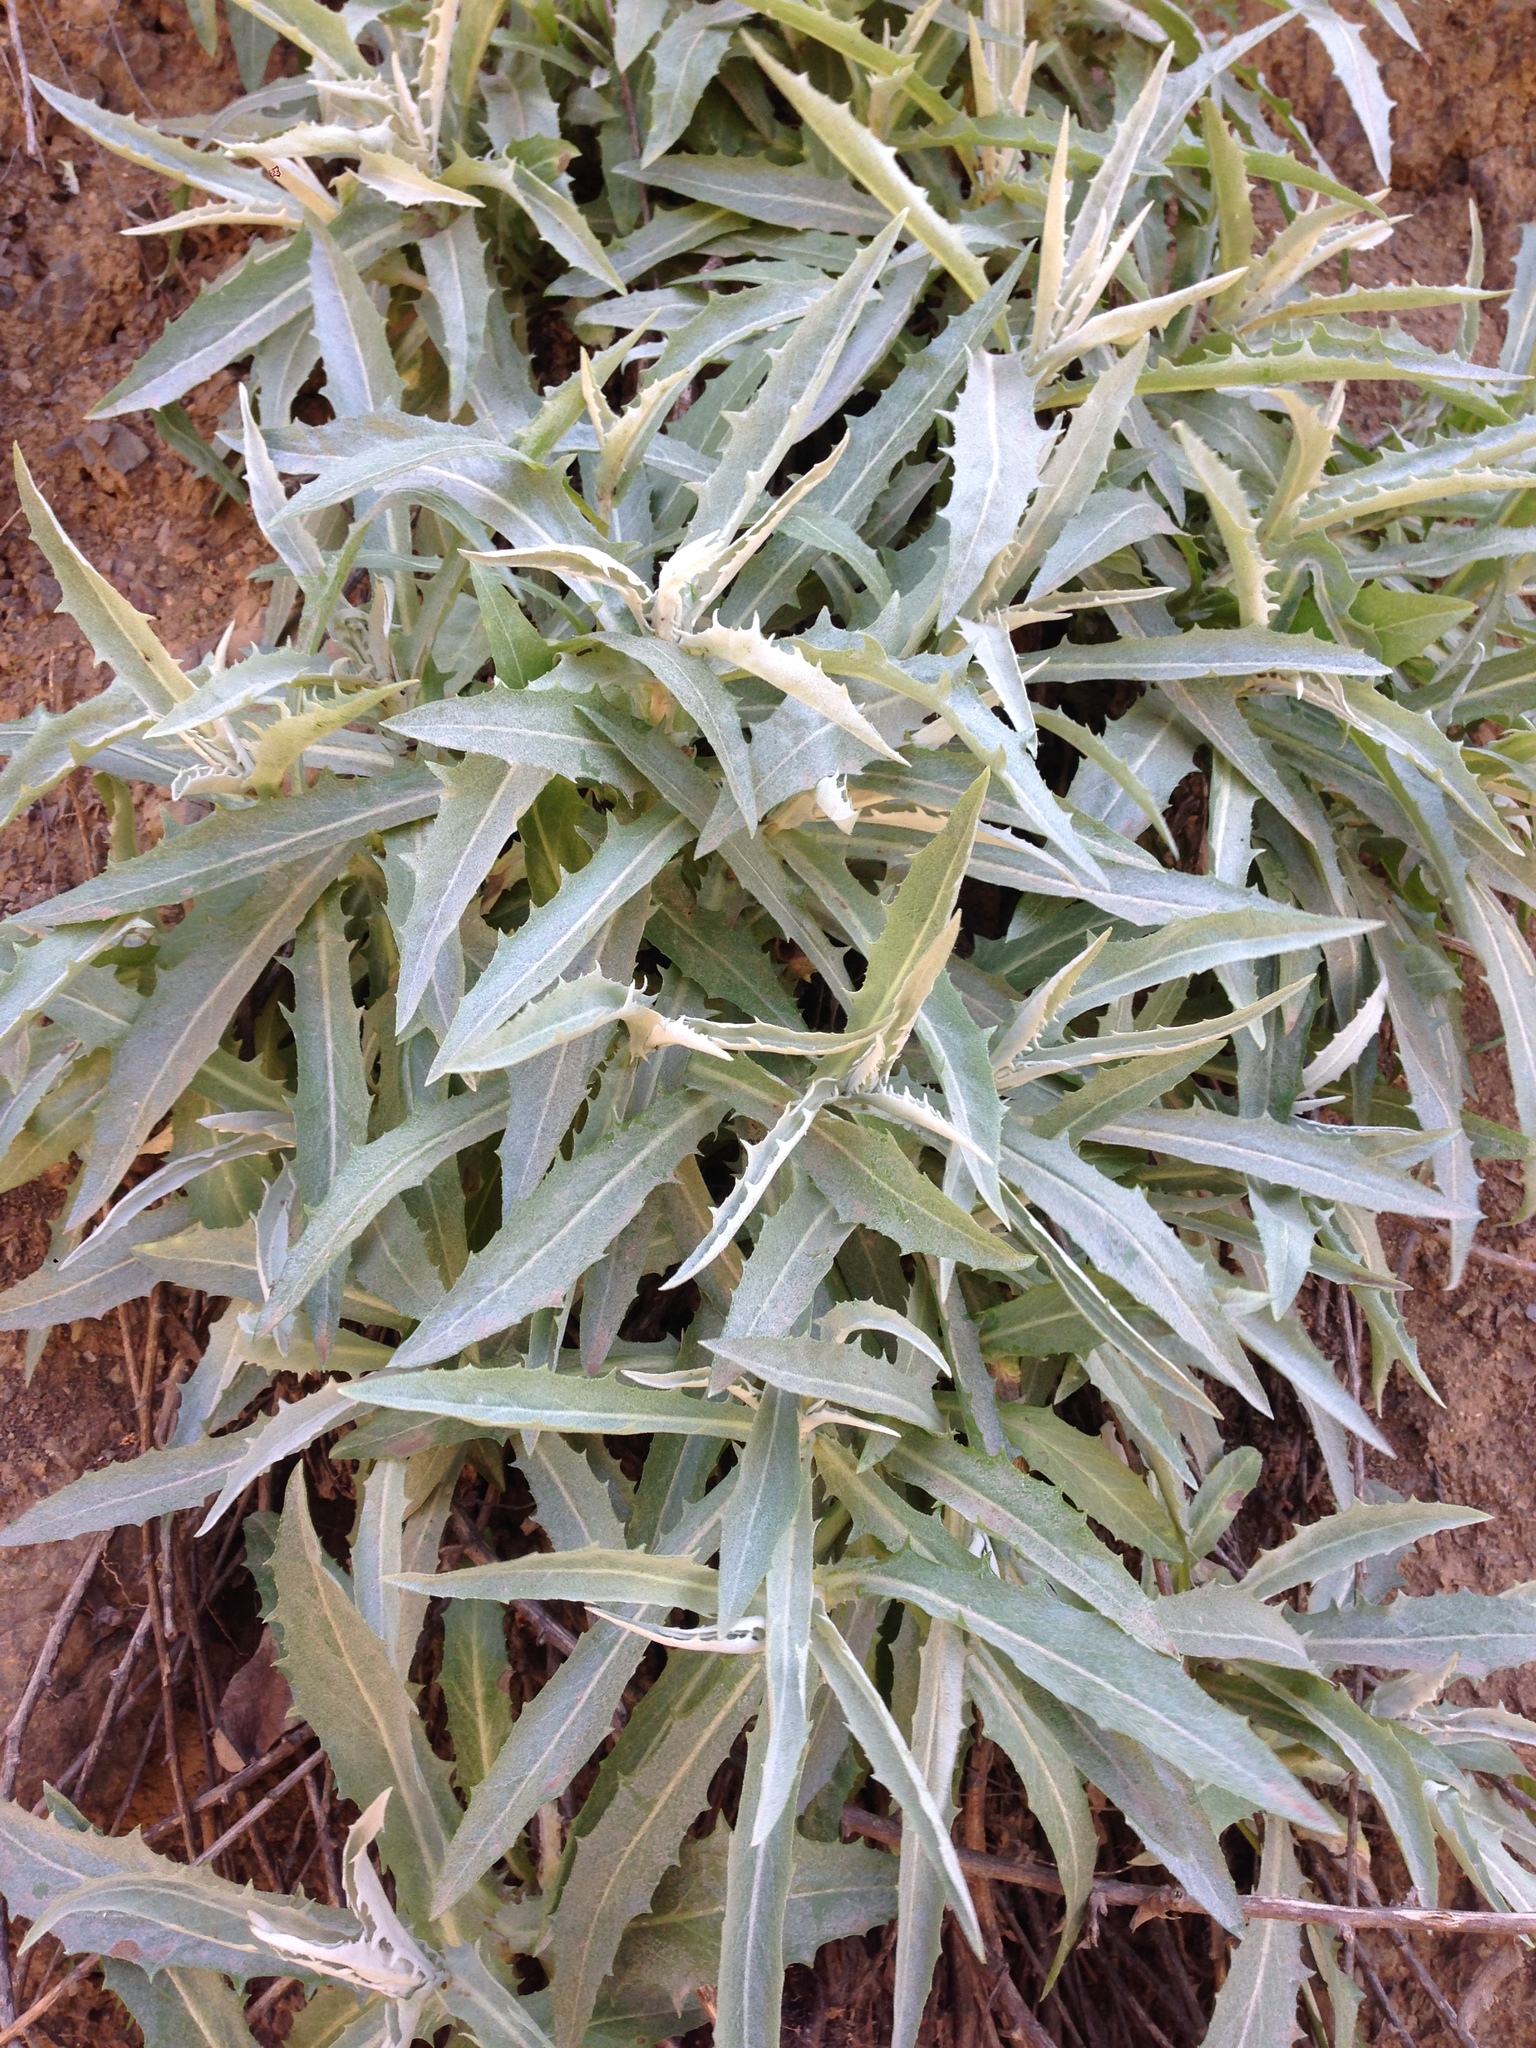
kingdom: Plantae
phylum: Tracheophyta
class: Magnoliopsida
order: Asterales
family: Asteraceae
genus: Stephanomeria
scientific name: Stephanomeria cichoriacea
